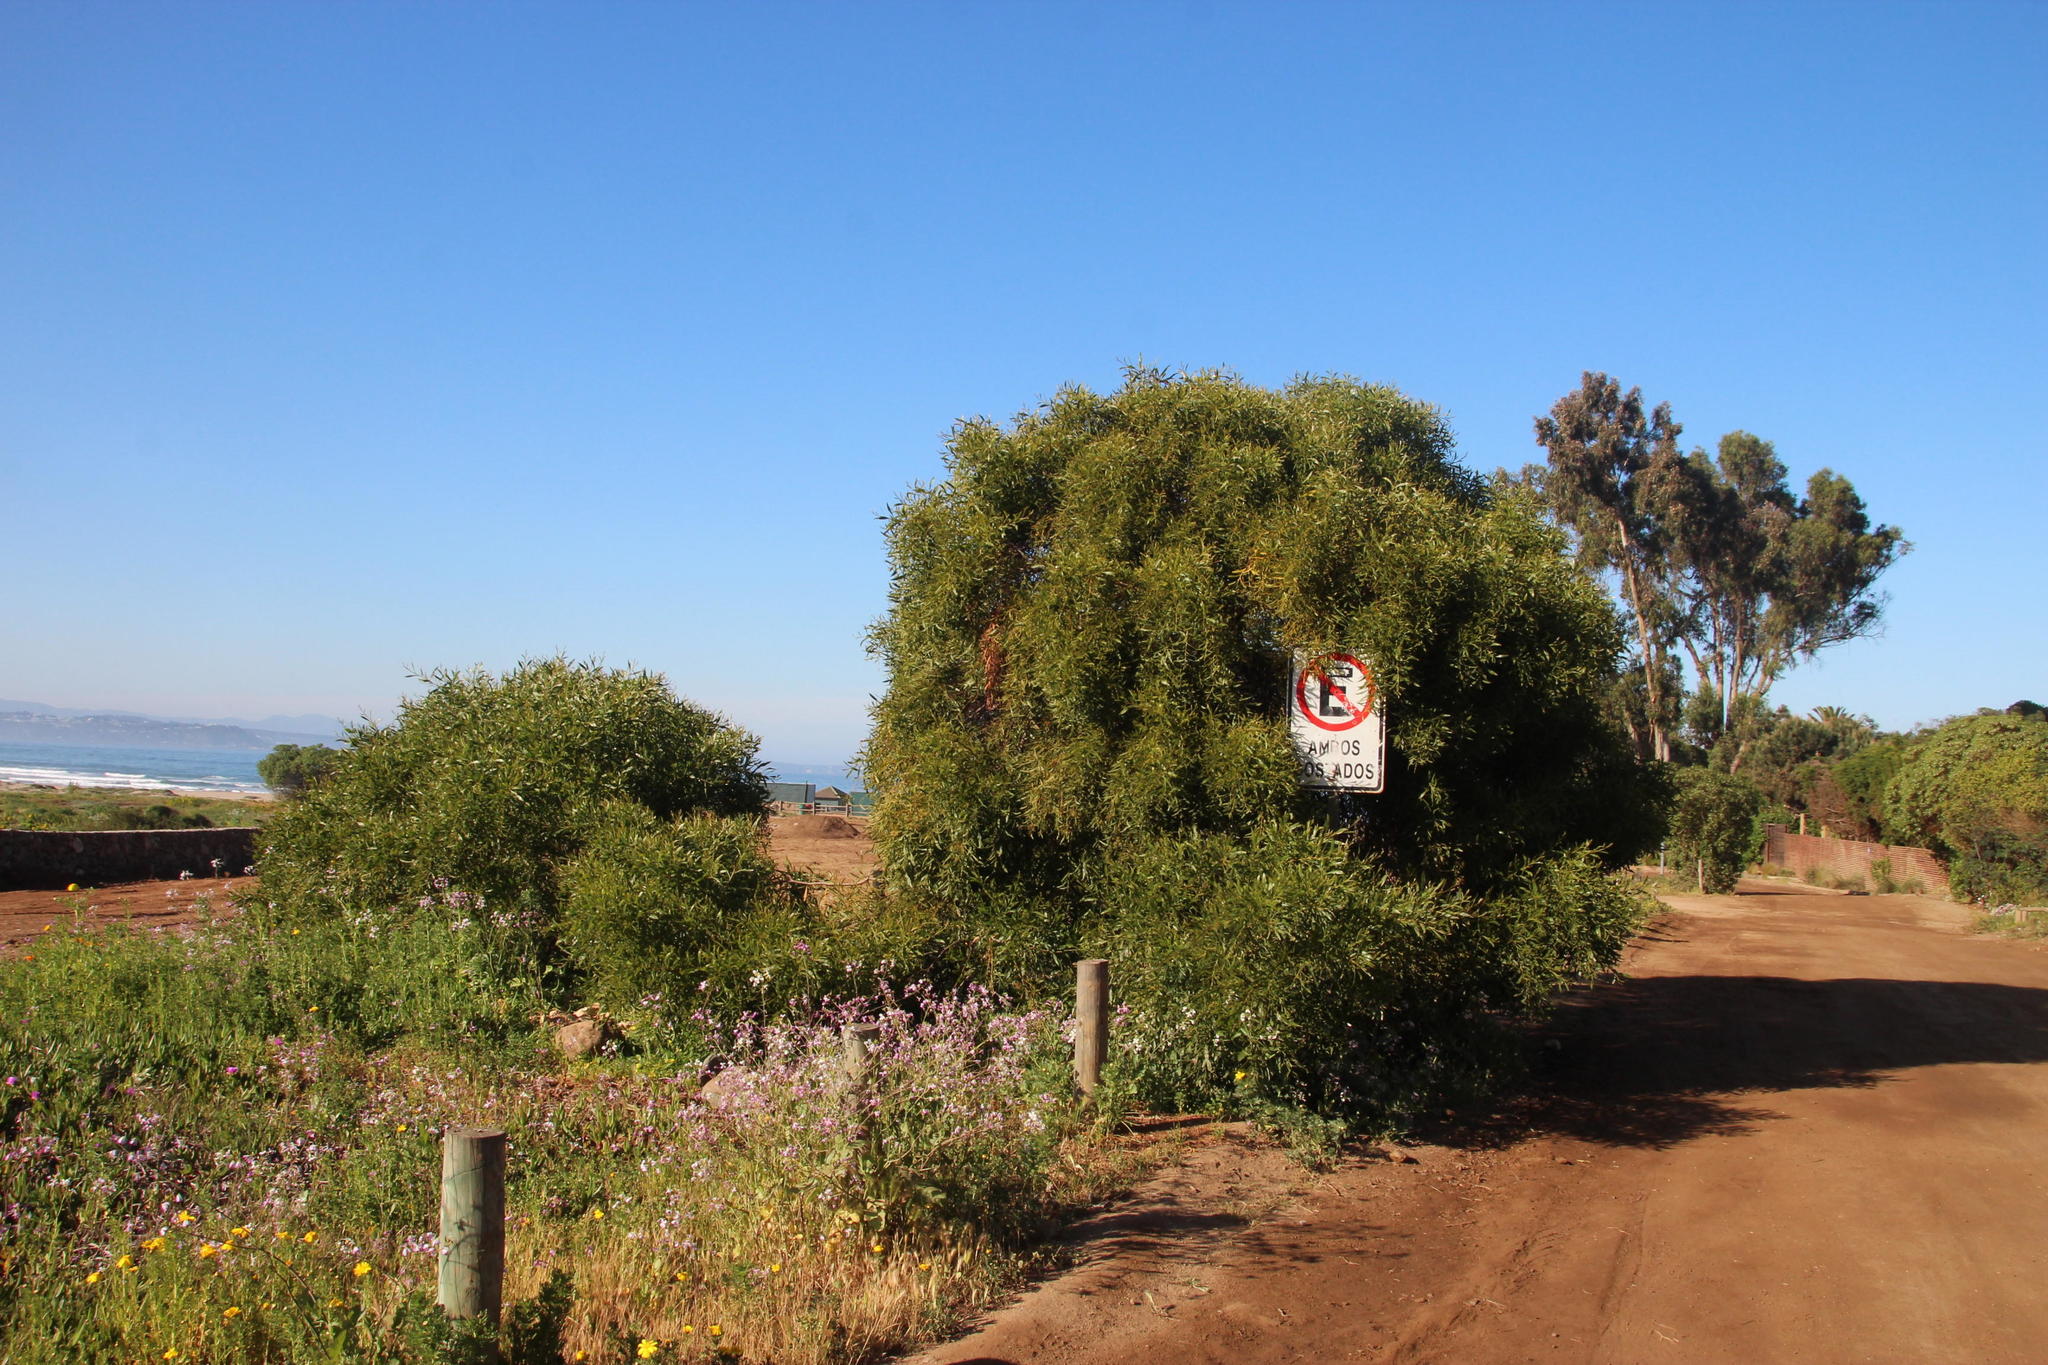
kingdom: Plantae
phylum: Tracheophyta
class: Magnoliopsida
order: Fabales
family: Fabaceae
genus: Acacia
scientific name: Acacia saligna
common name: Orange wattle
